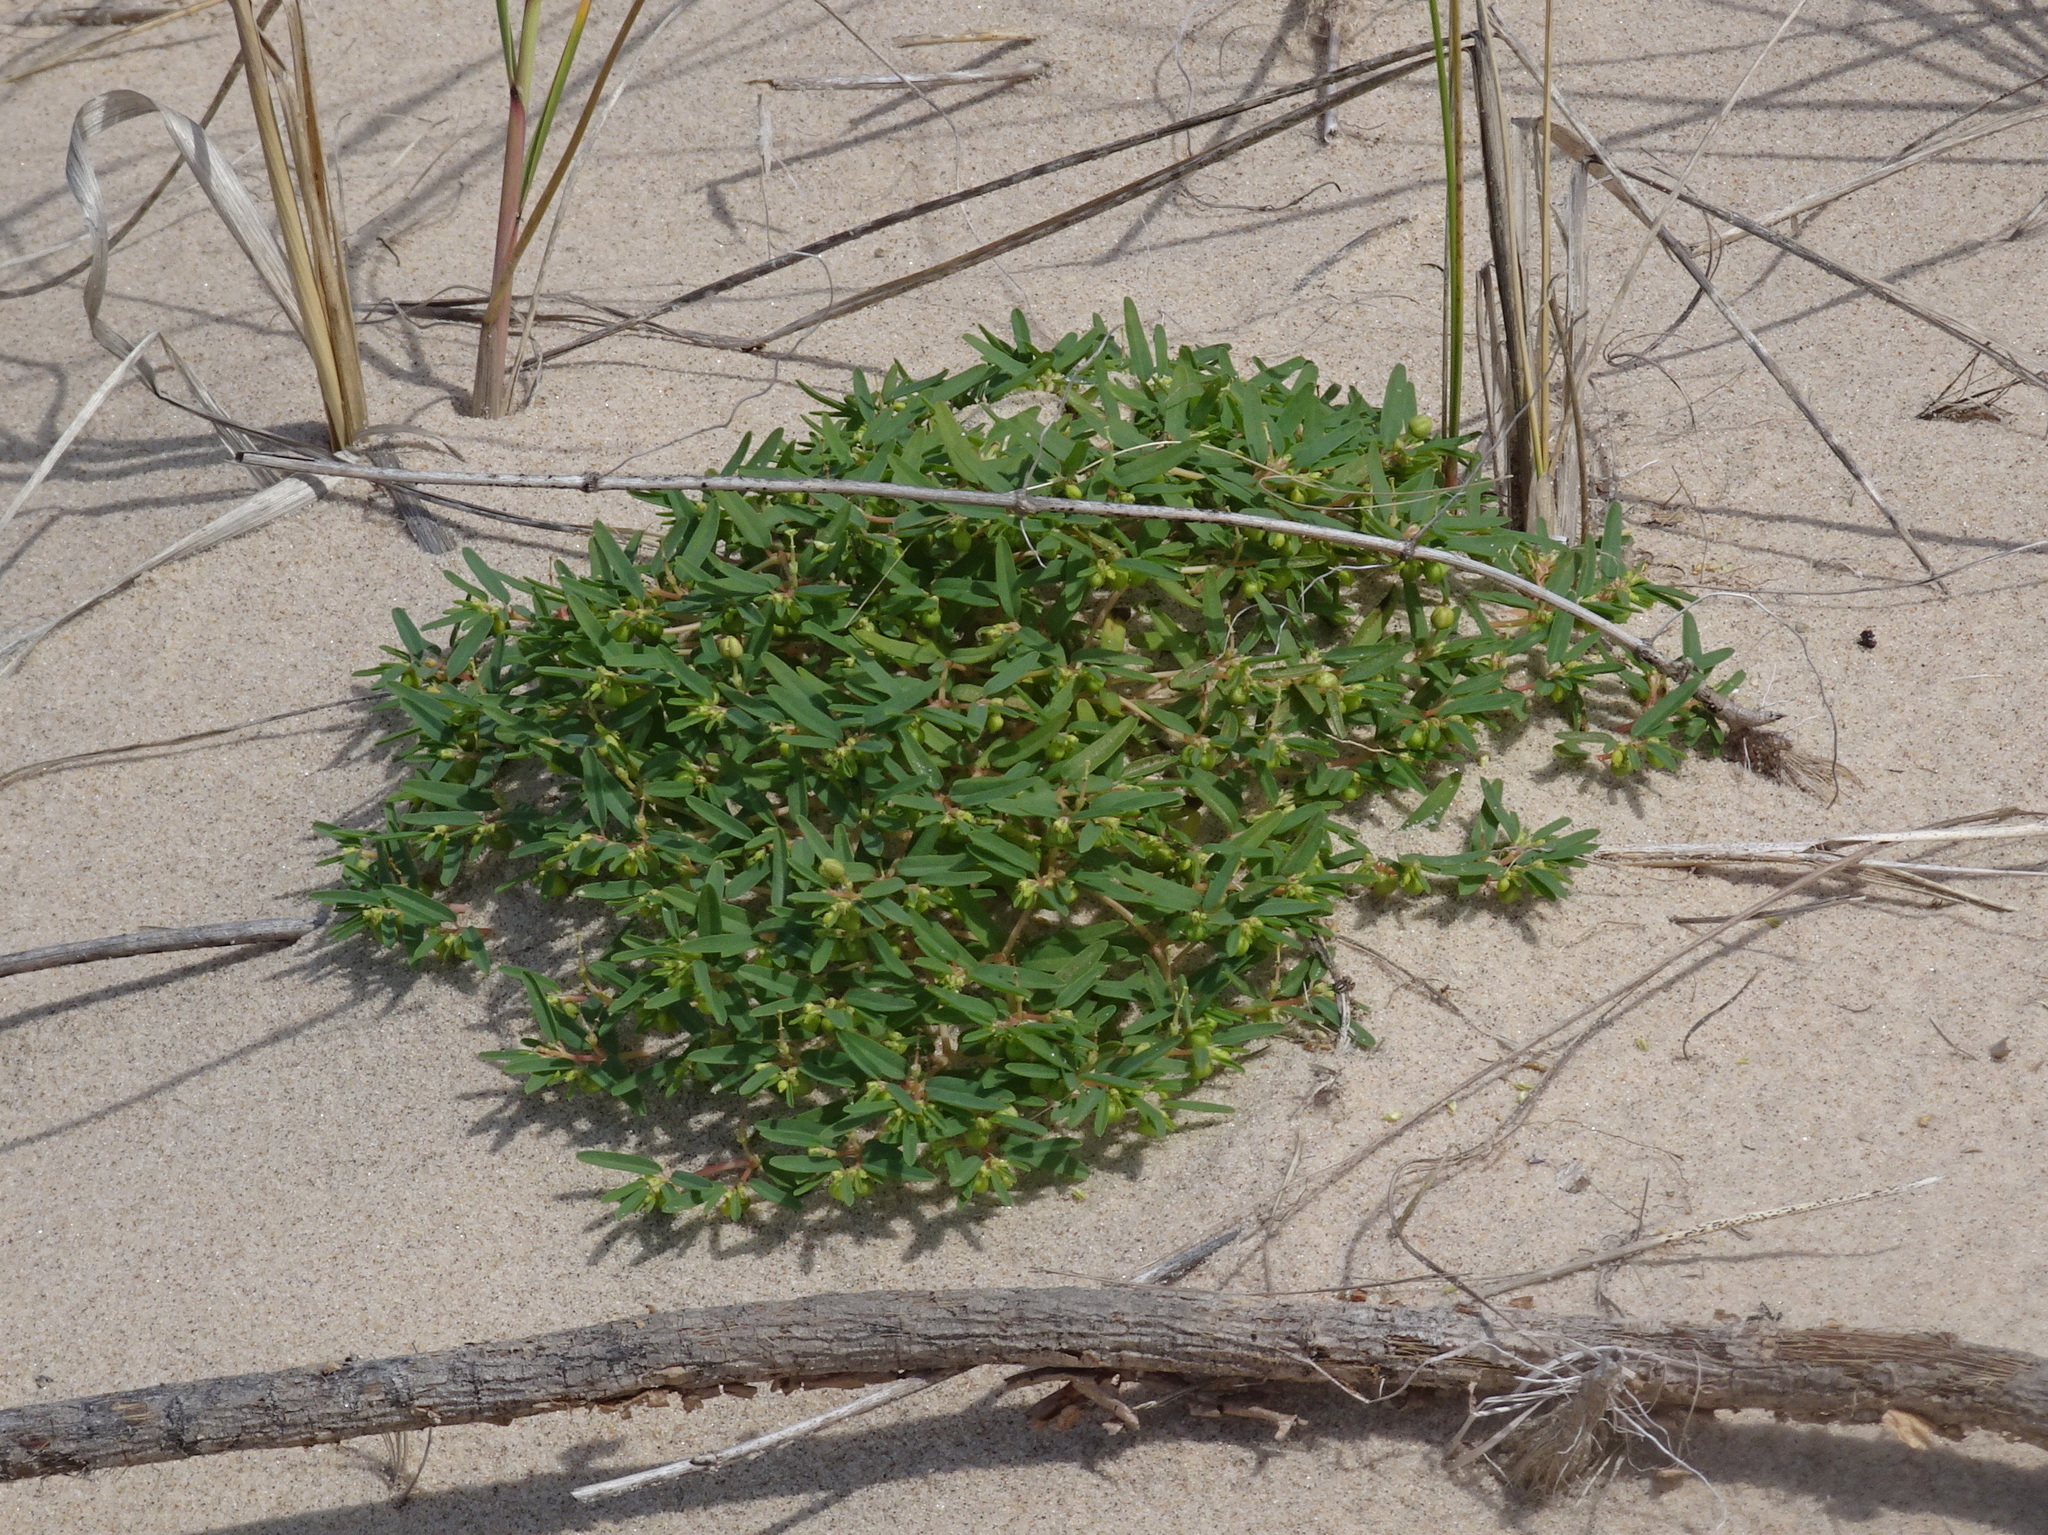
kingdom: Plantae
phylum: Tracheophyta
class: Magnoliopsida
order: Malpighiales
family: Euphorbiaceae
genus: Euphorbia
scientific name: Euphorbia polygonifolia
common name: Knotweed spurge
